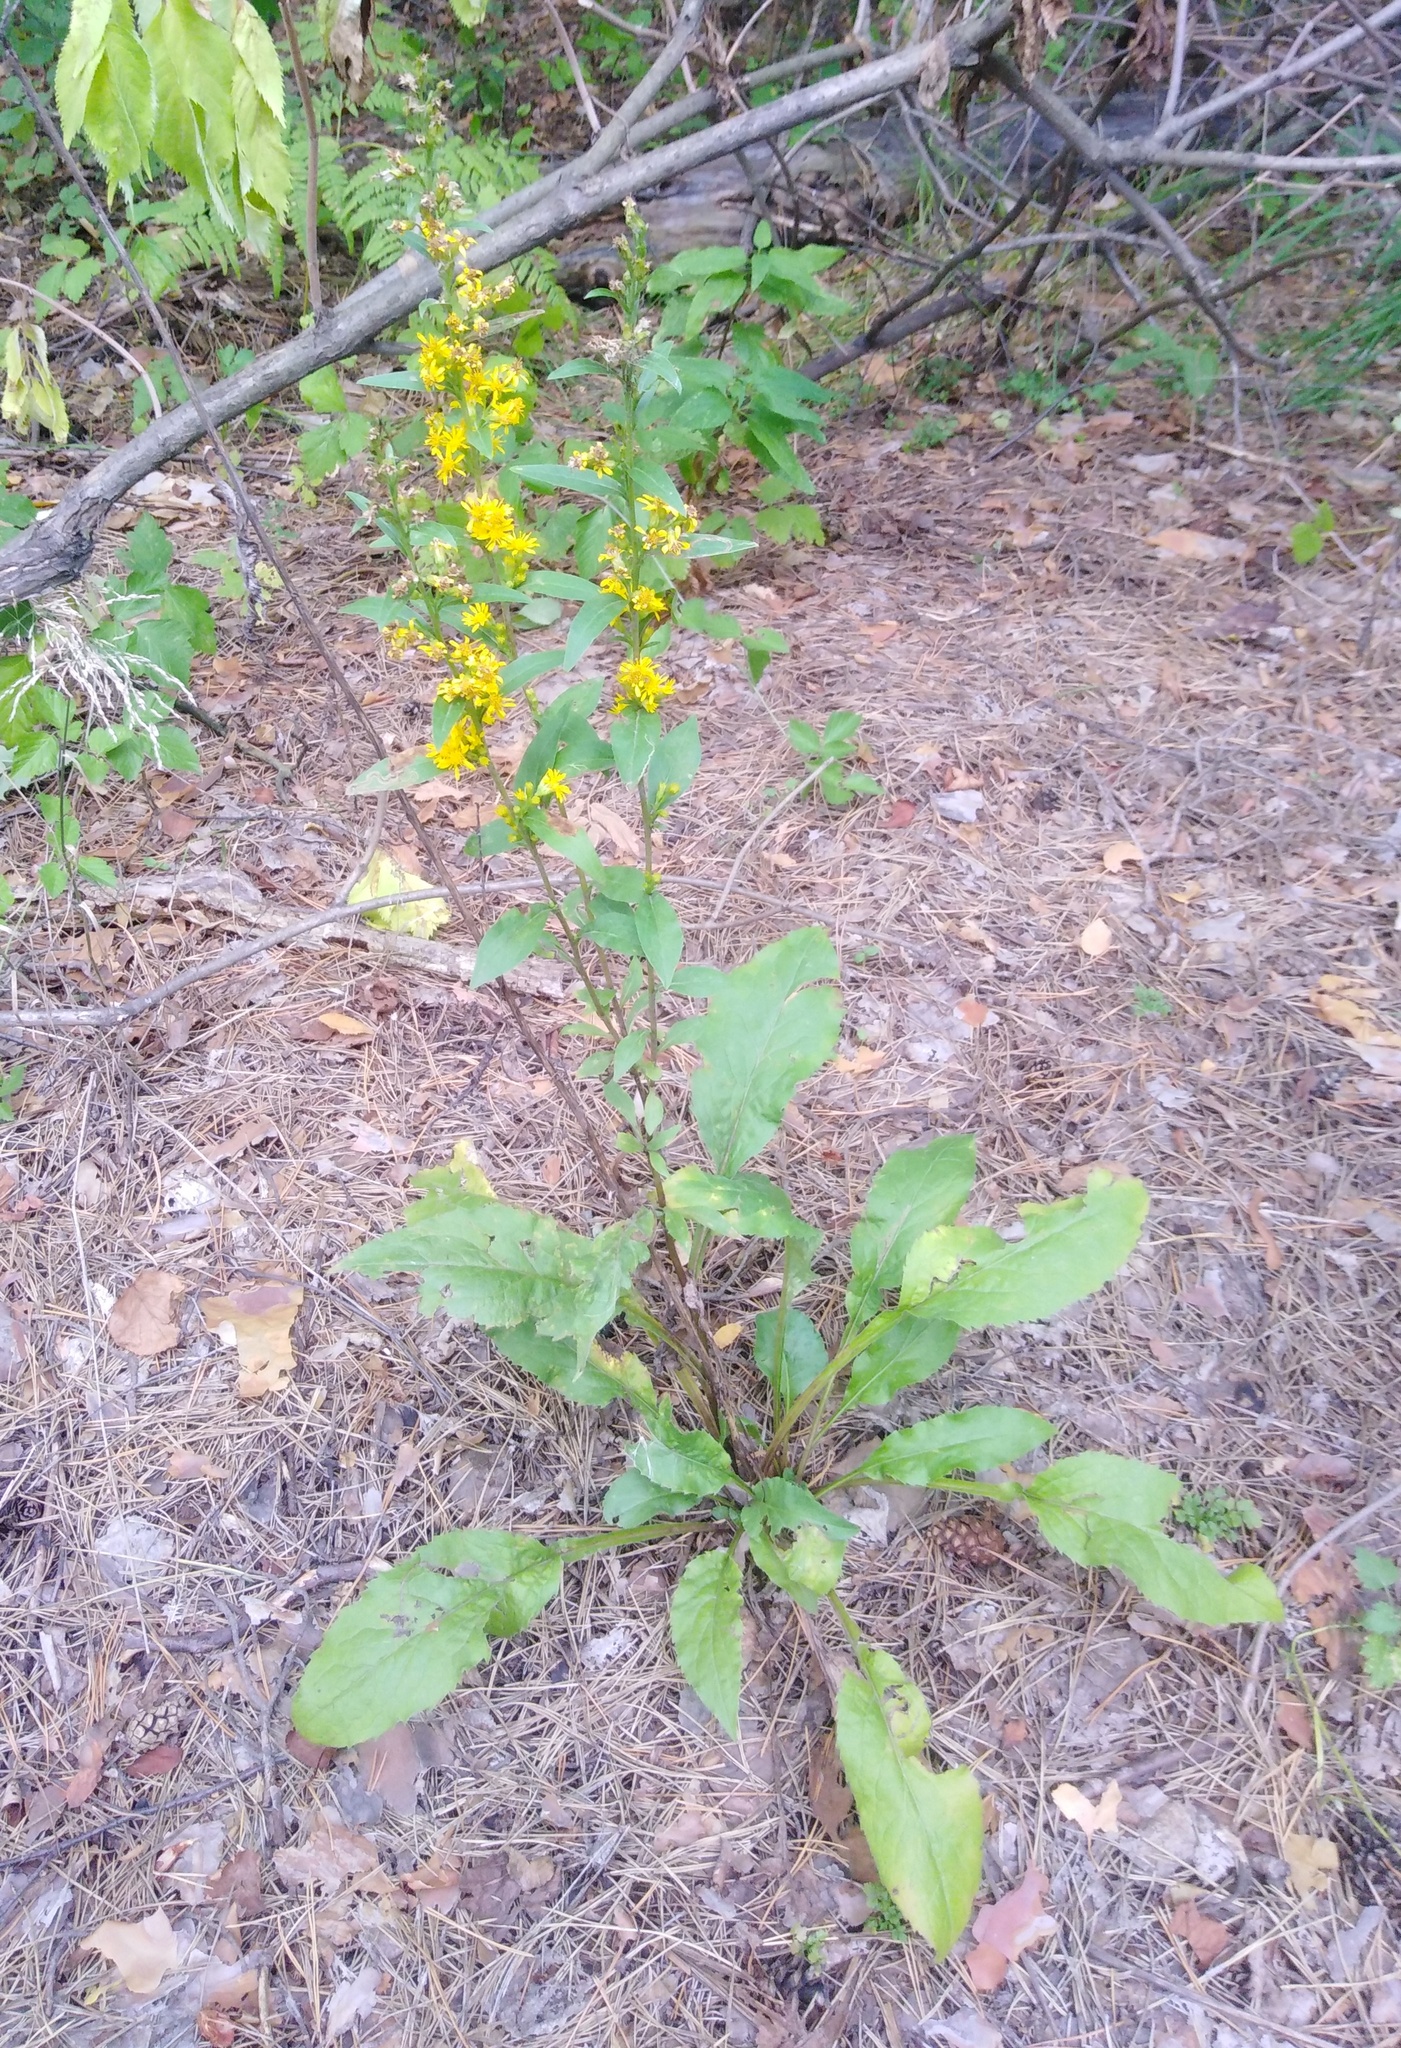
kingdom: Plantae
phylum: Tracheophyta
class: Magnoliopsida
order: Asterales
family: Asteraceae
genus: Solidago
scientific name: Solidago virgaurea
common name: Goldenrod
